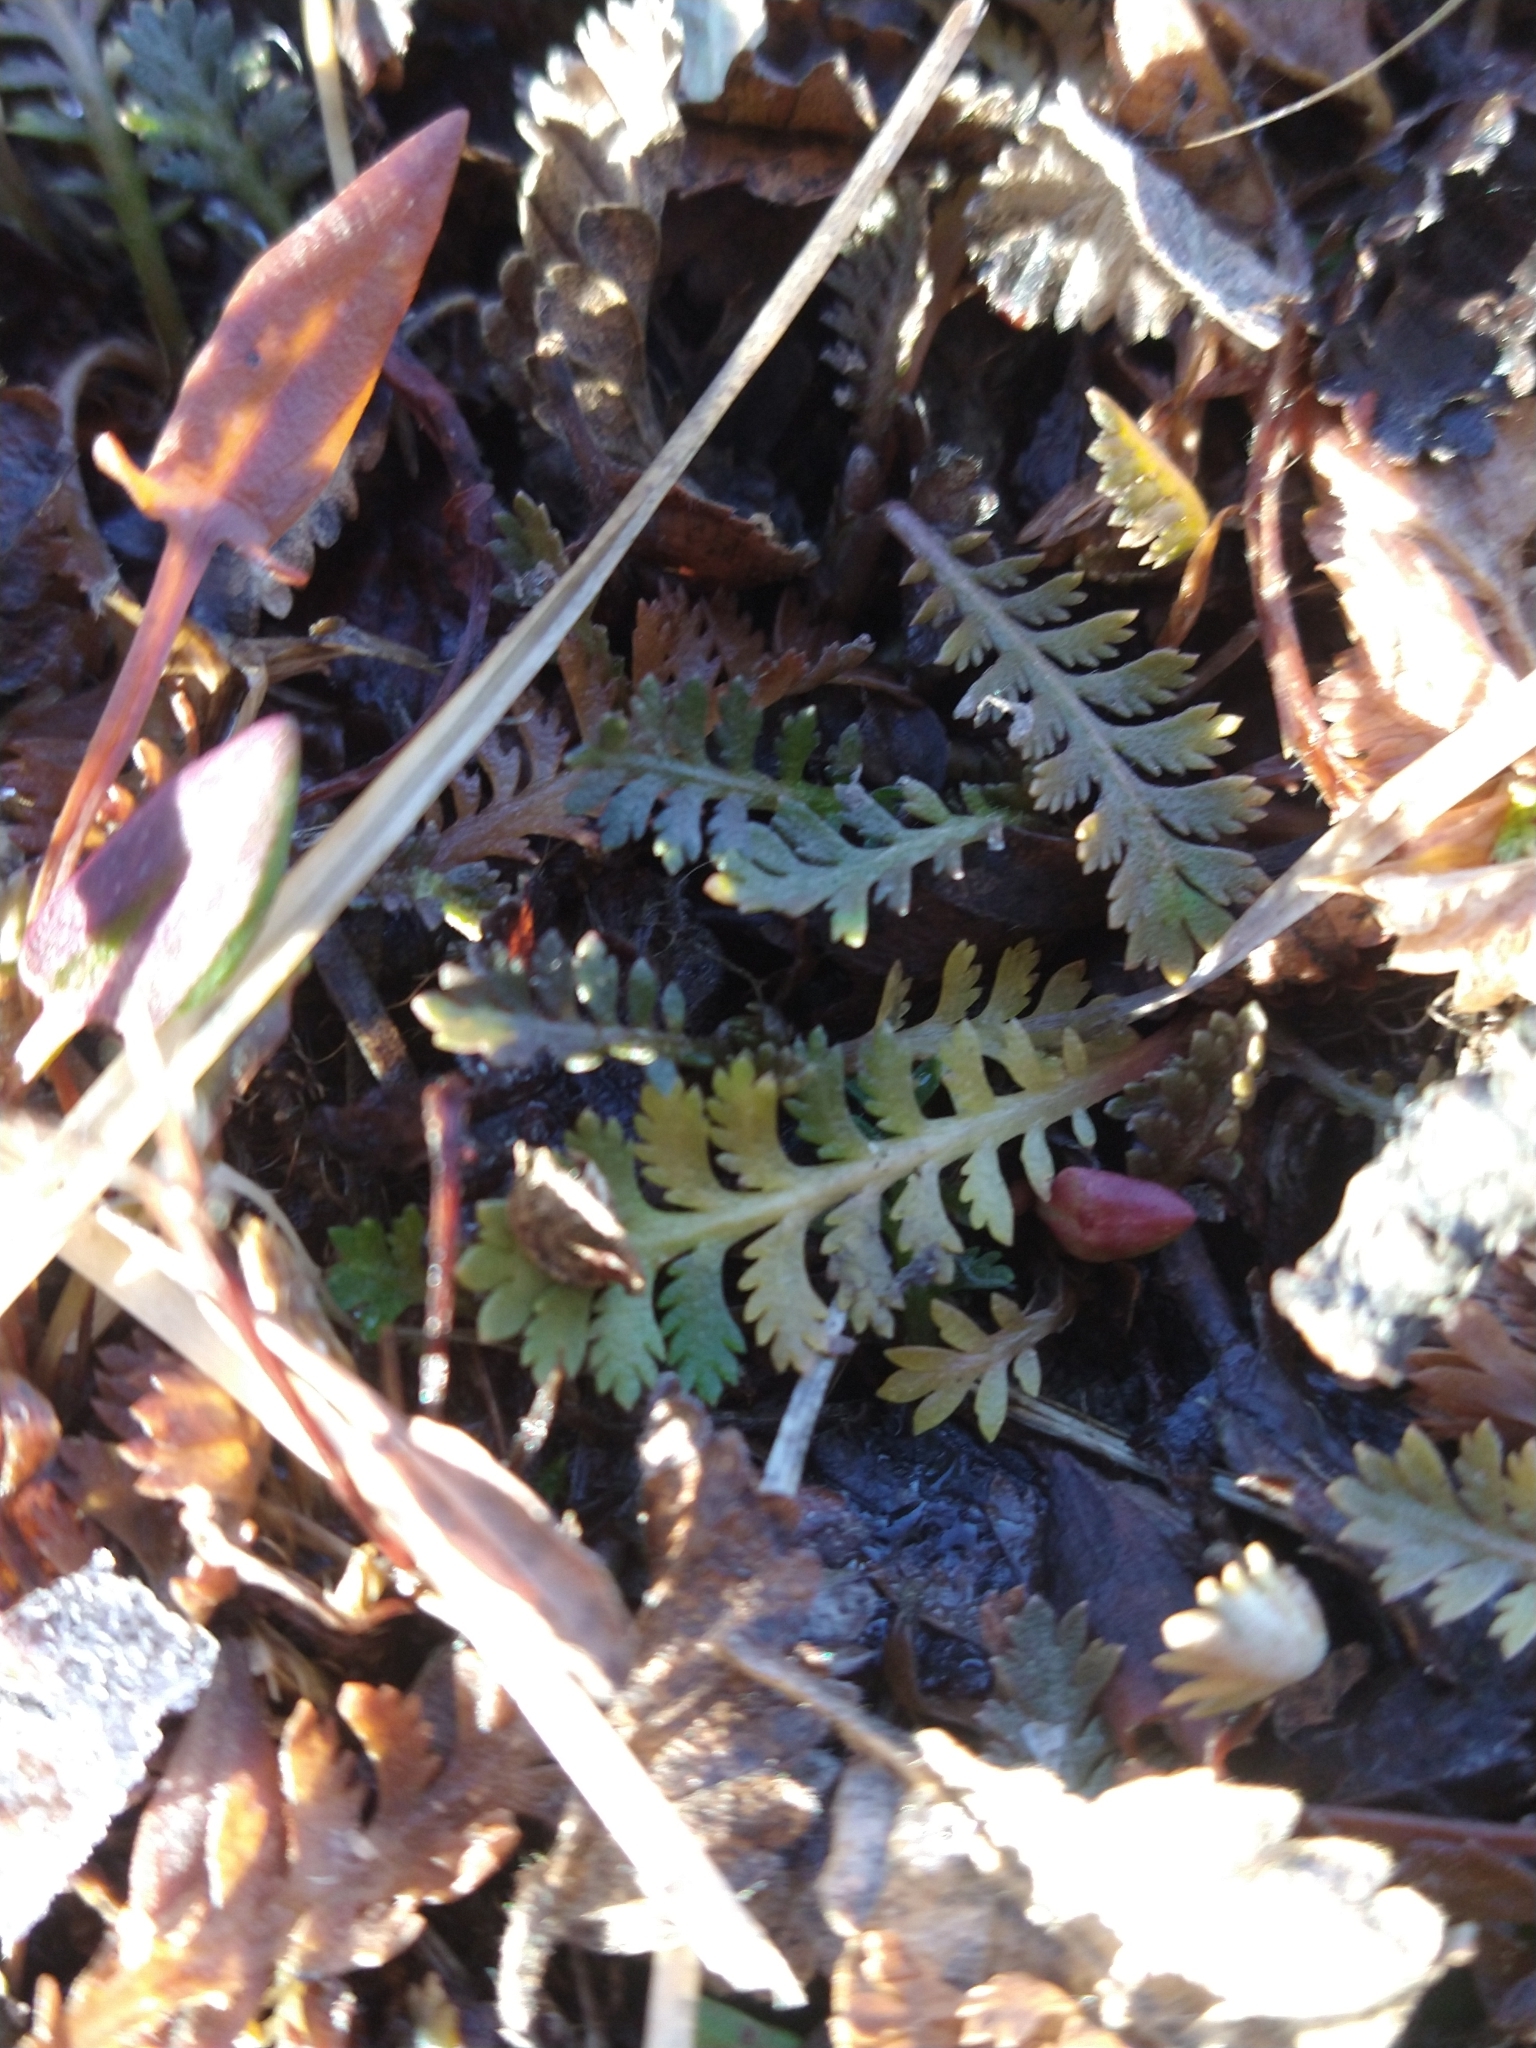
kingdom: Plantae
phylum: Tracheophyta
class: Magnoliopsida
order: Asterales
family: Asteraceae
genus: Leptinella
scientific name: Leptinella scariosa
